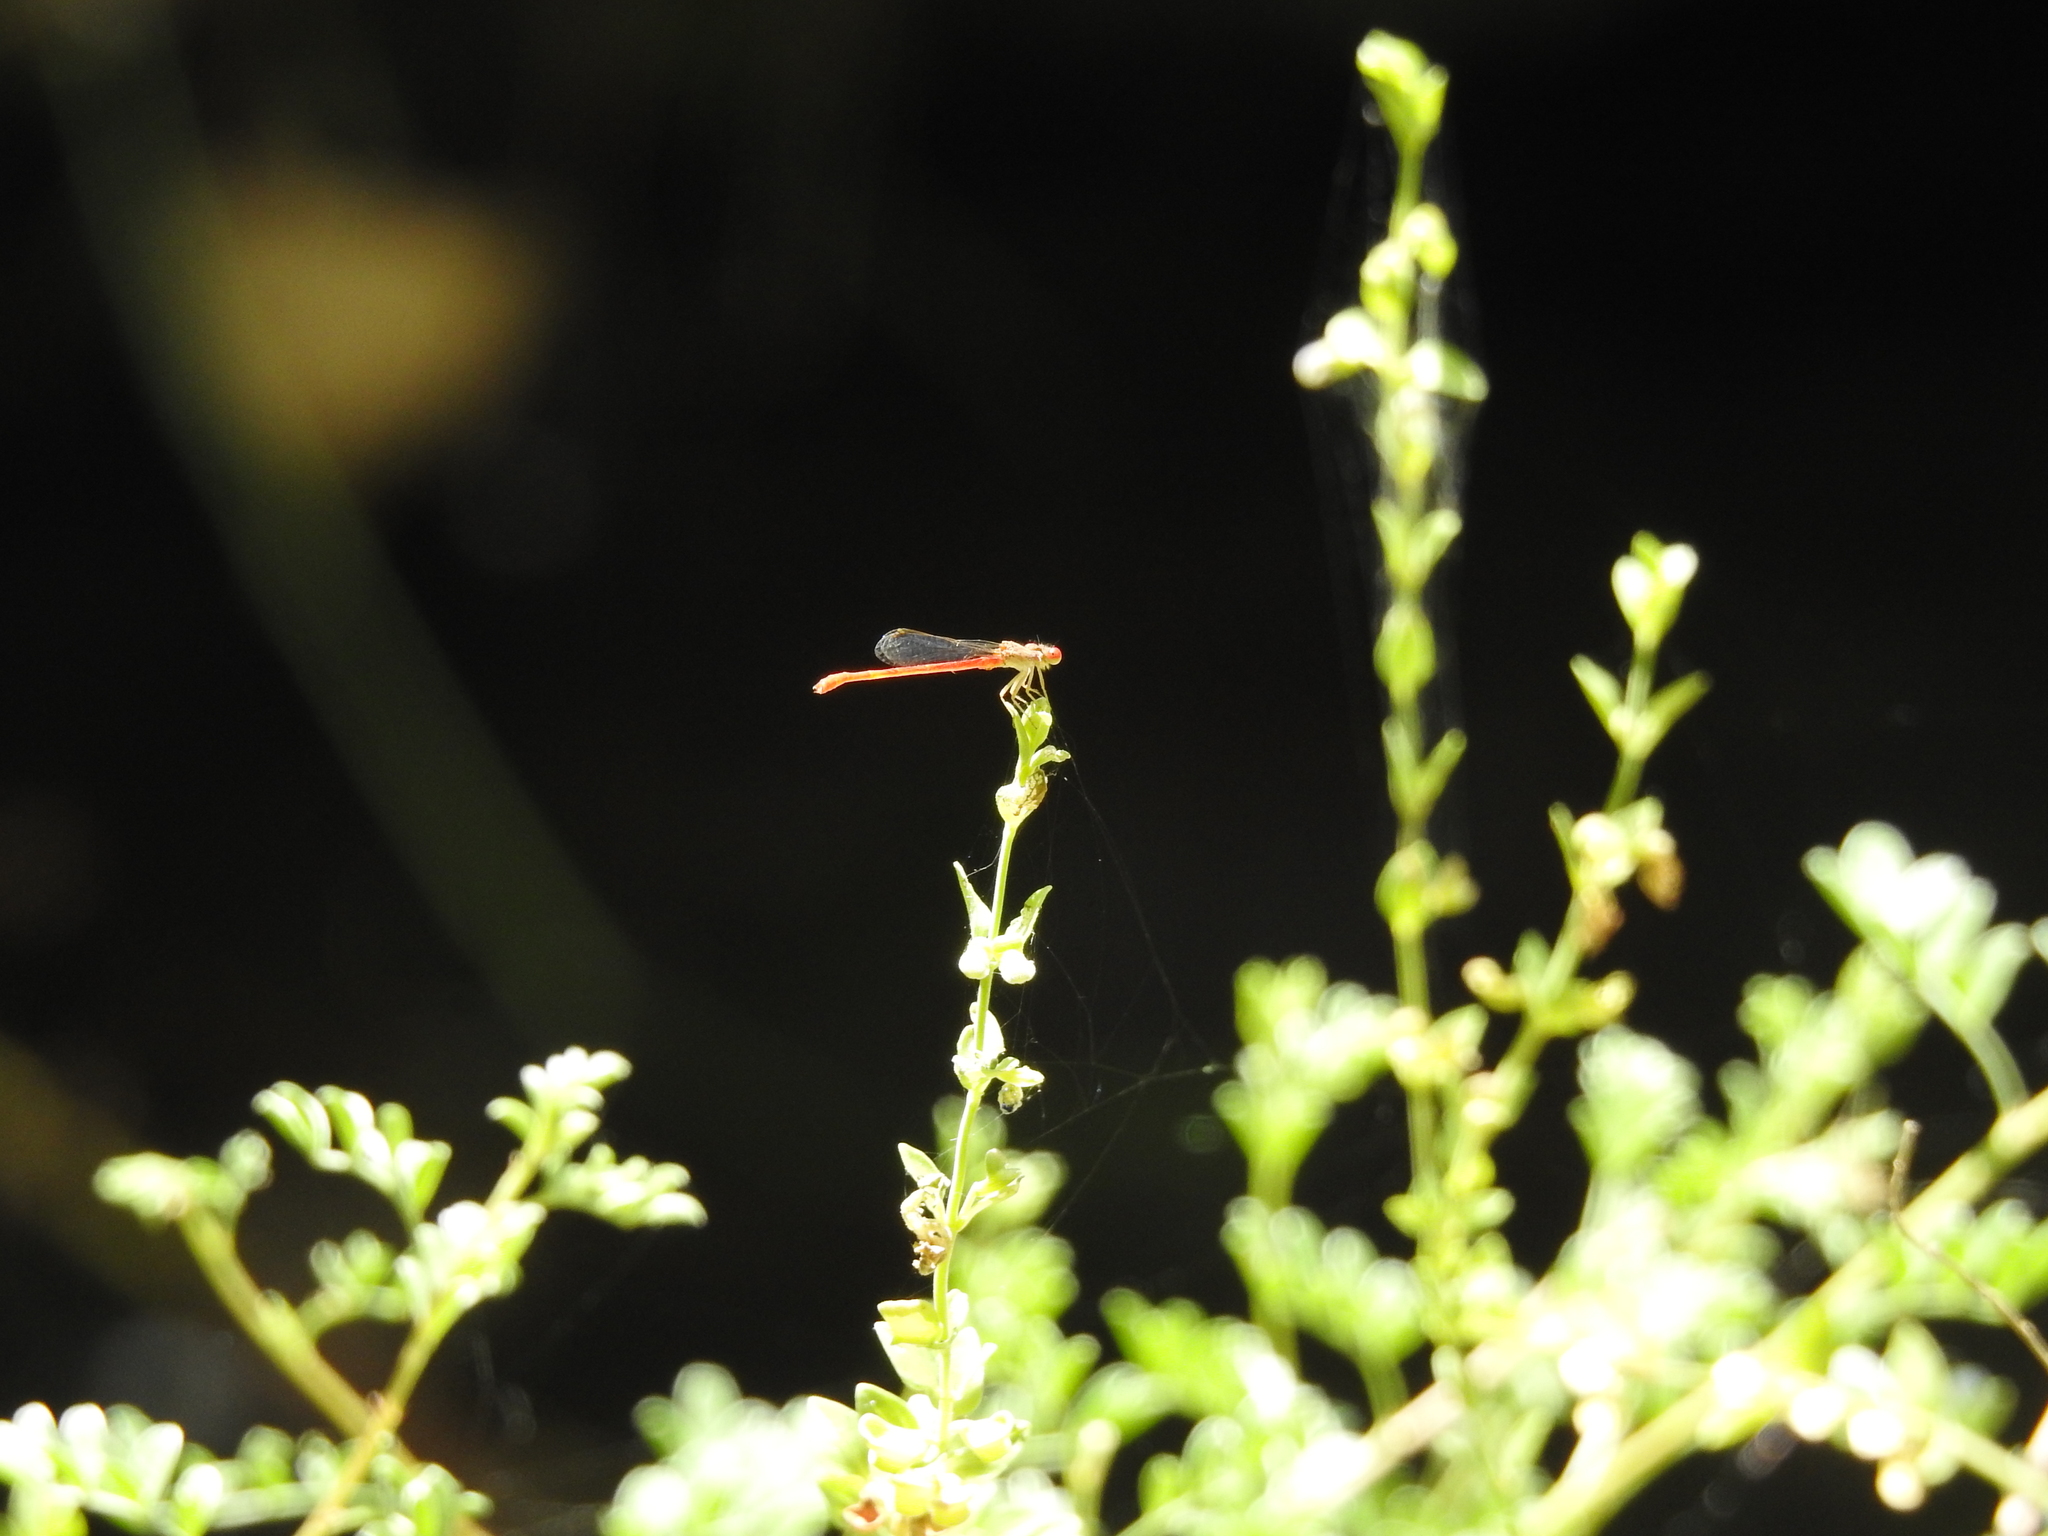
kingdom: Animalia
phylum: Arthropoda
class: Insecta
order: Odonata
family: Coenagrionidae
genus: Telebasis
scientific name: Telebasis salva
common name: Desert firetail
